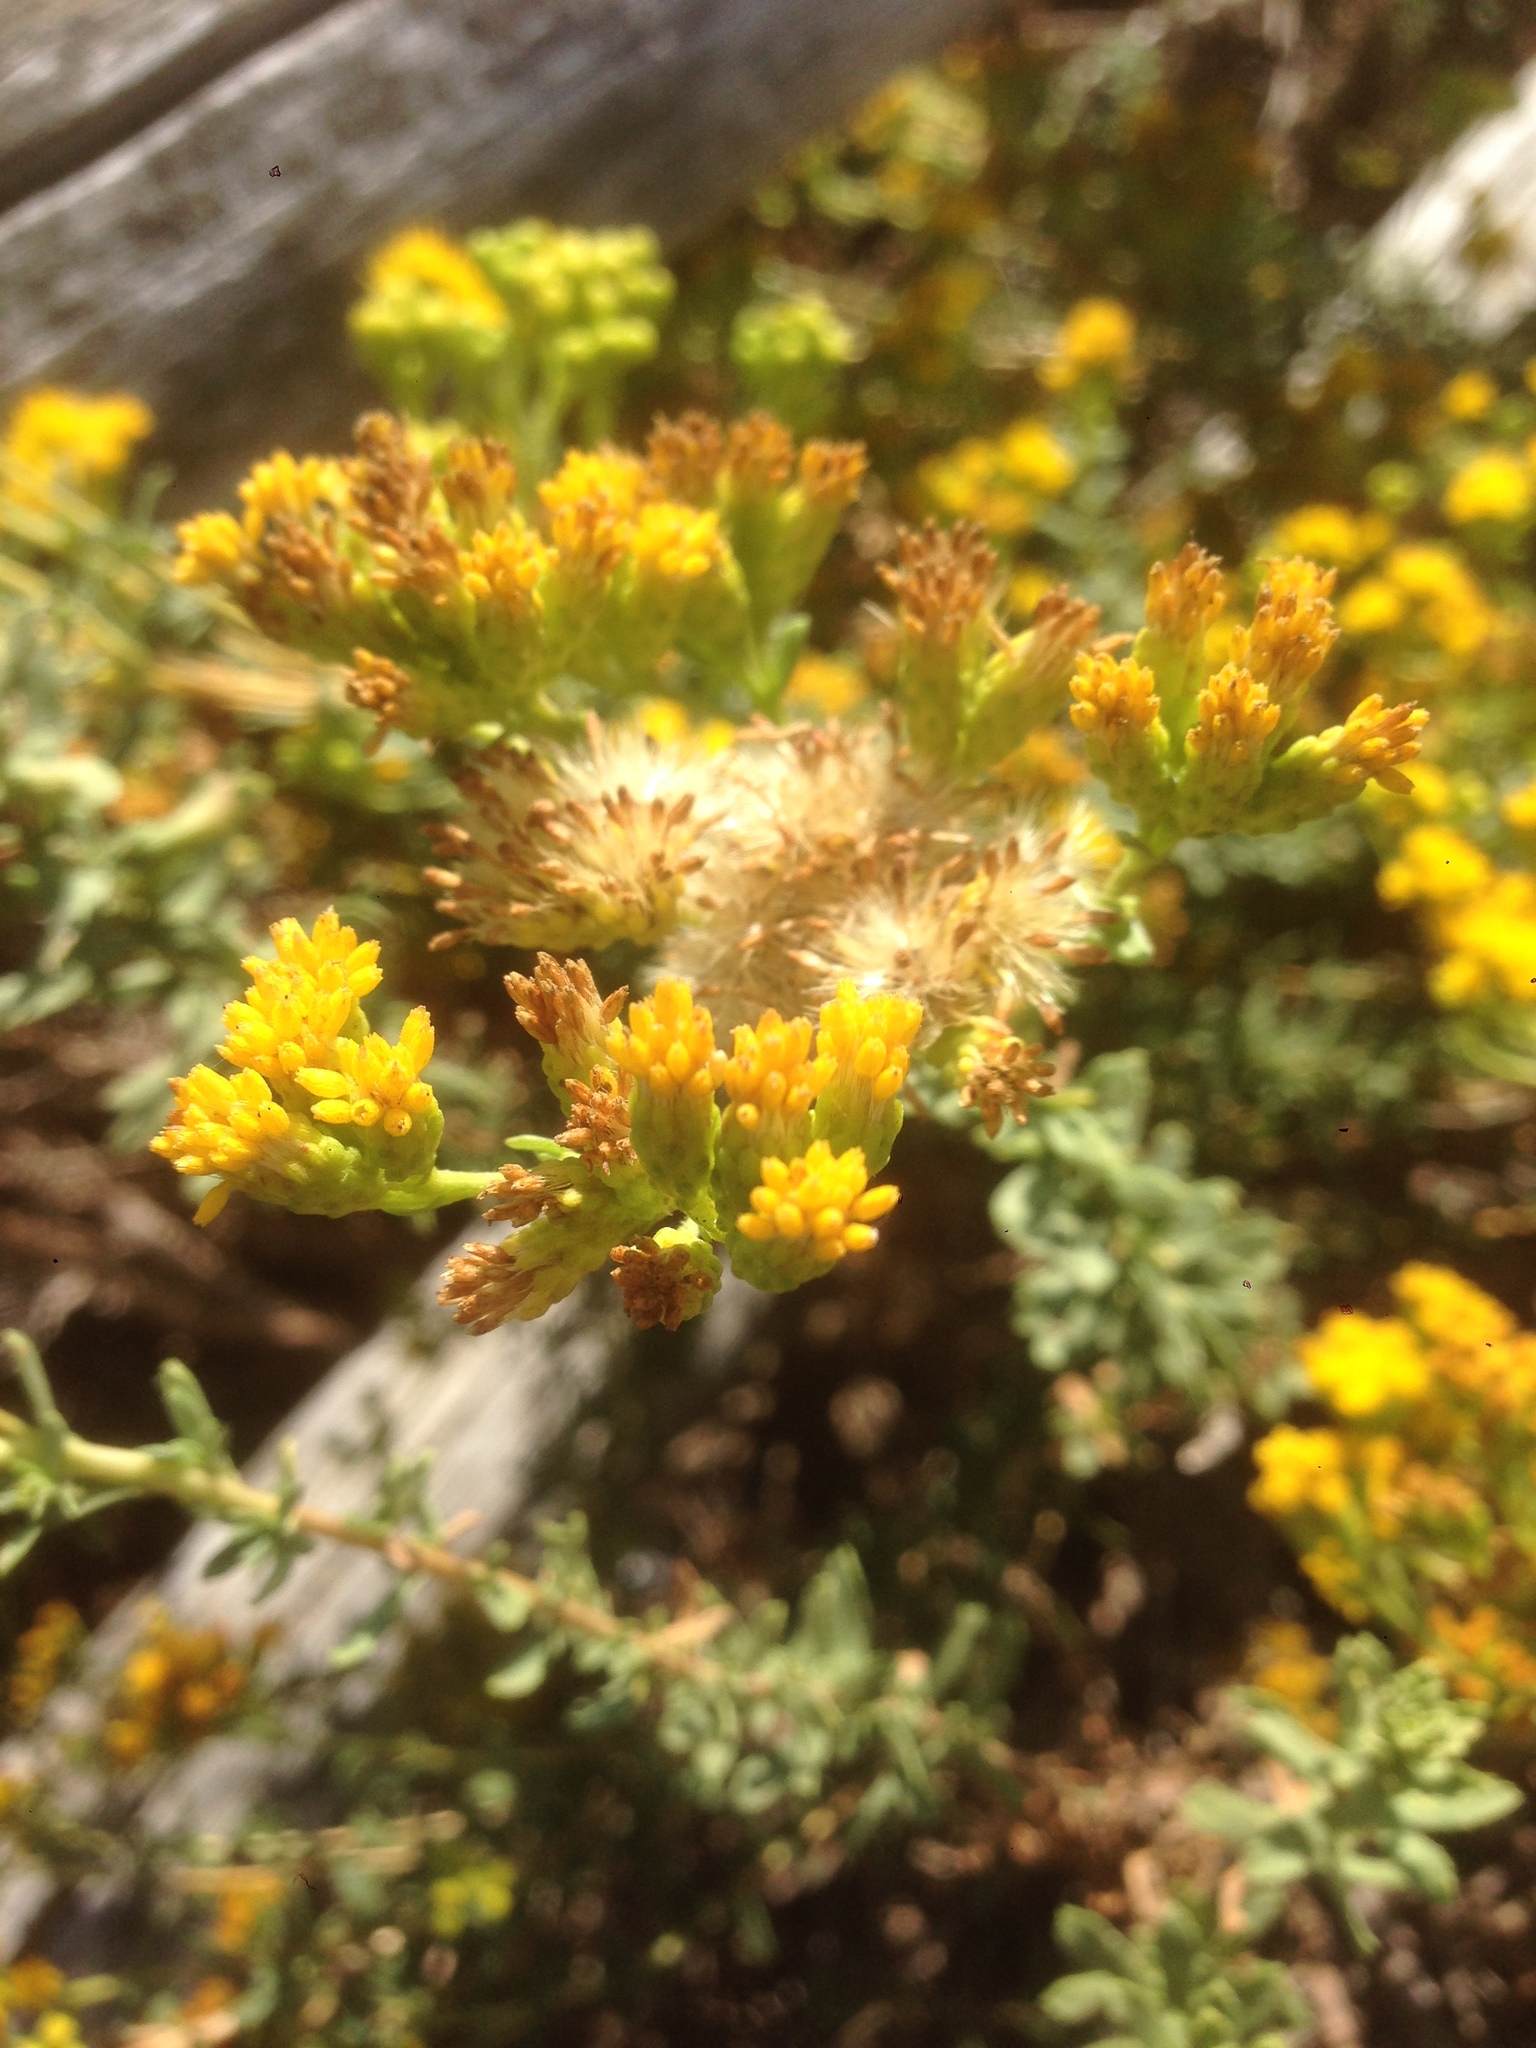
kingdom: Plantae
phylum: Tracheophyta
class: Magnoliopsida
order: Asterales
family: Asteraceae
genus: Isocoma
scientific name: Isocoma menziesii
